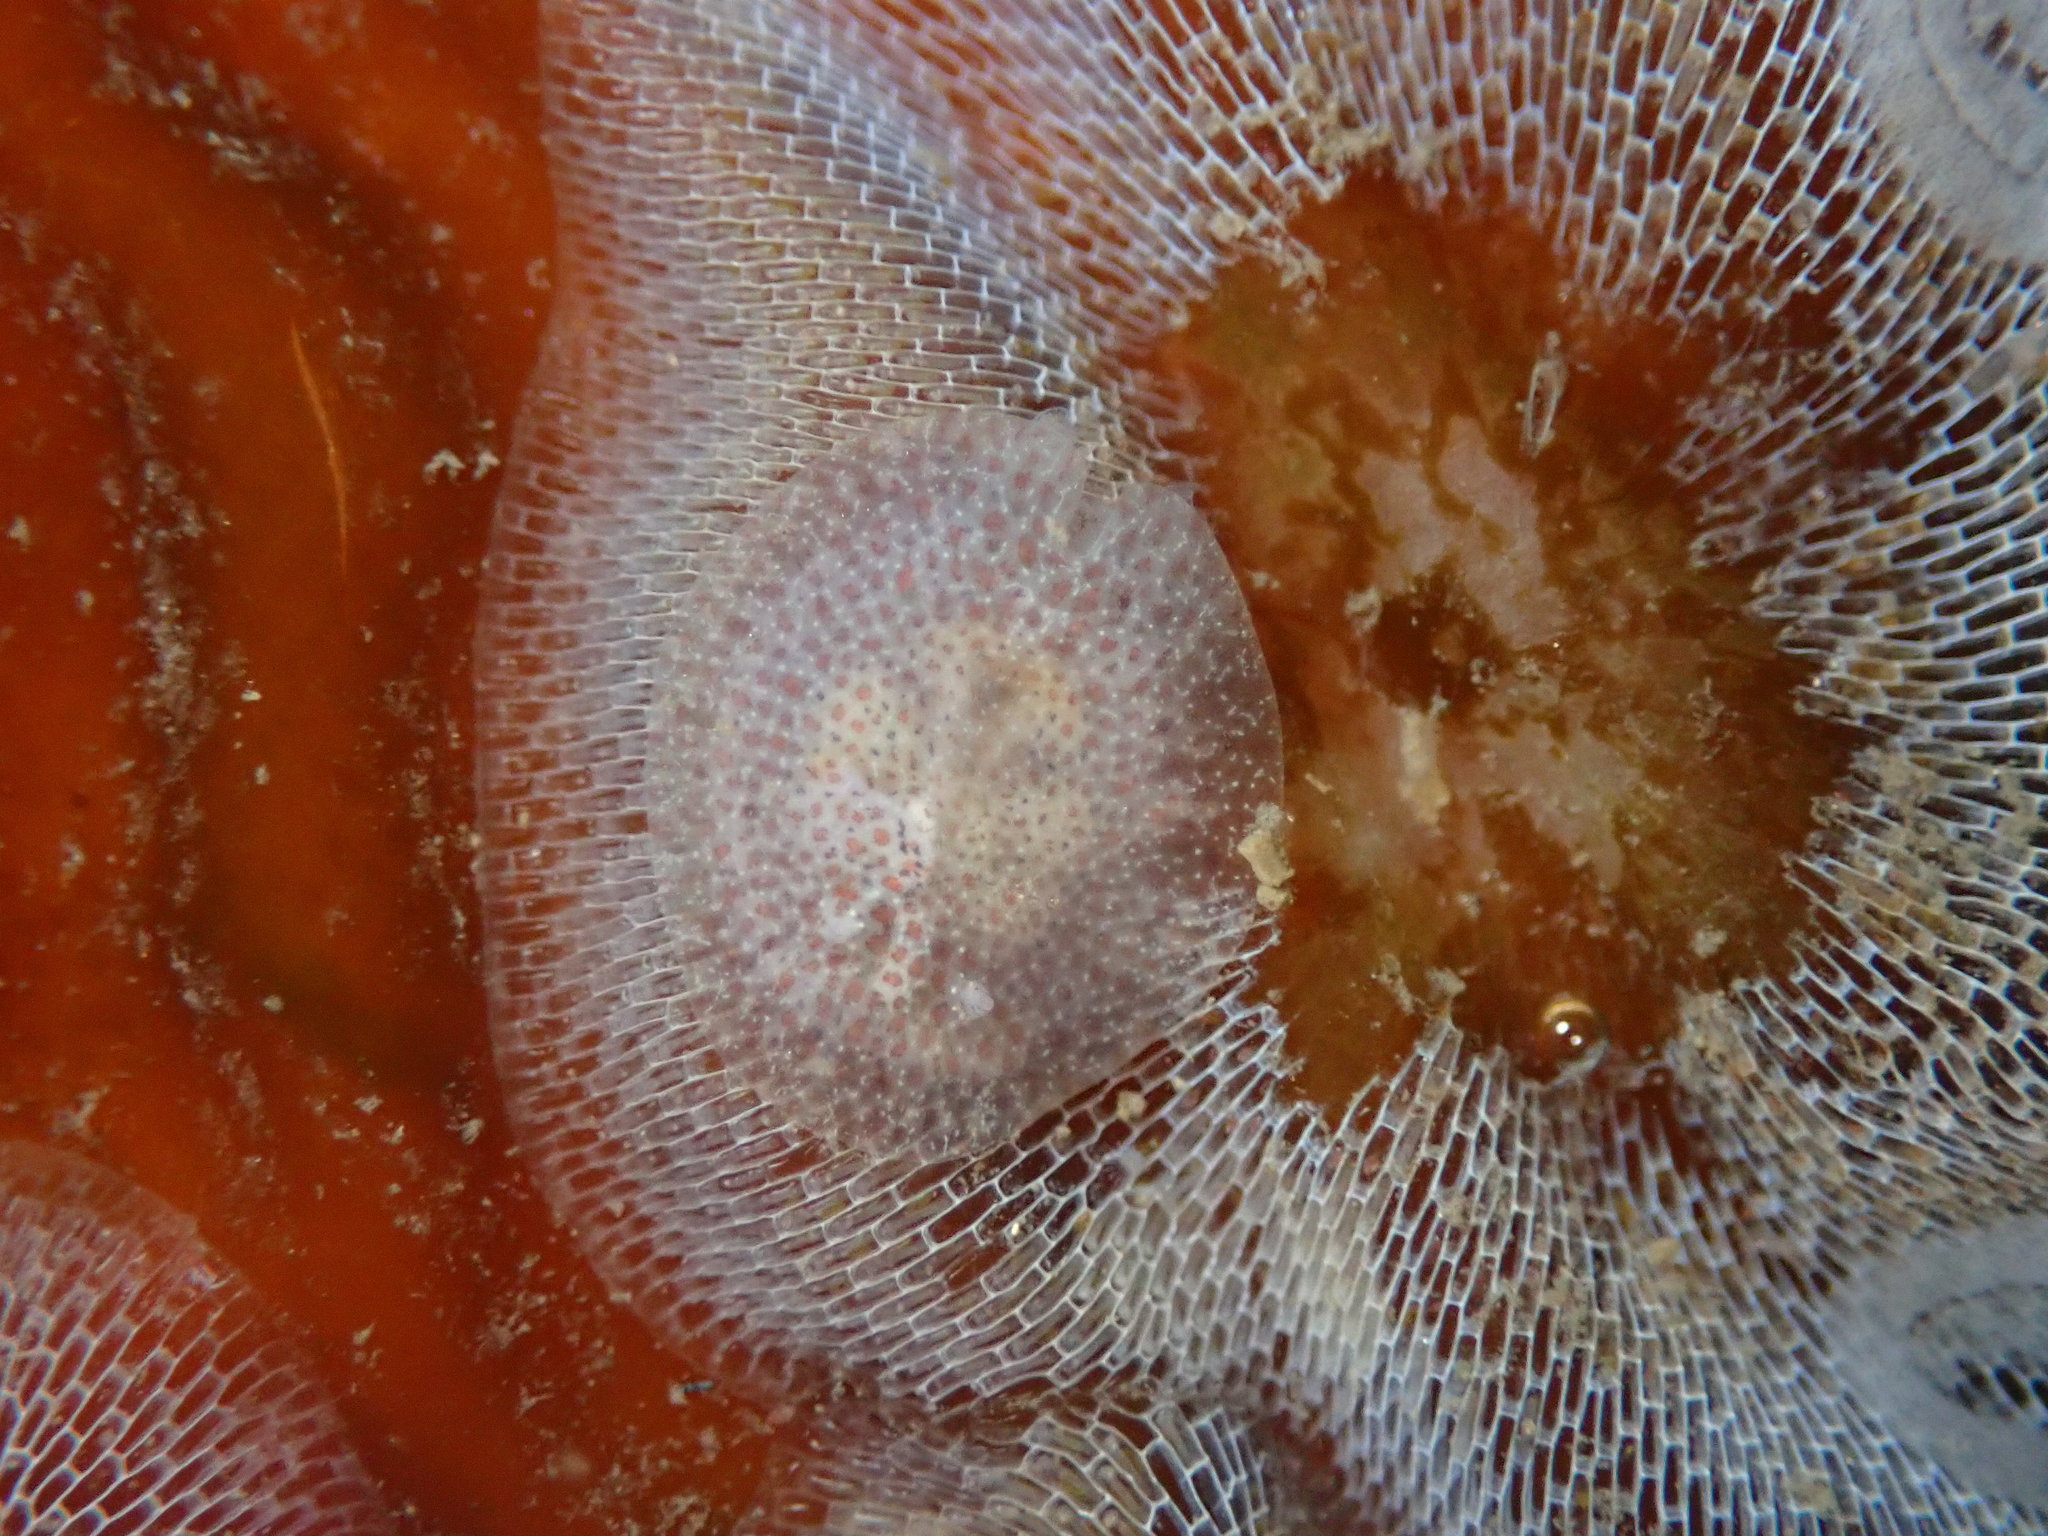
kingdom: Animalia
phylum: Mollusca
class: Gastropoda
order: Nudibranchia
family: Corambidae
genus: Corambe
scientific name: Corambe pacifica
